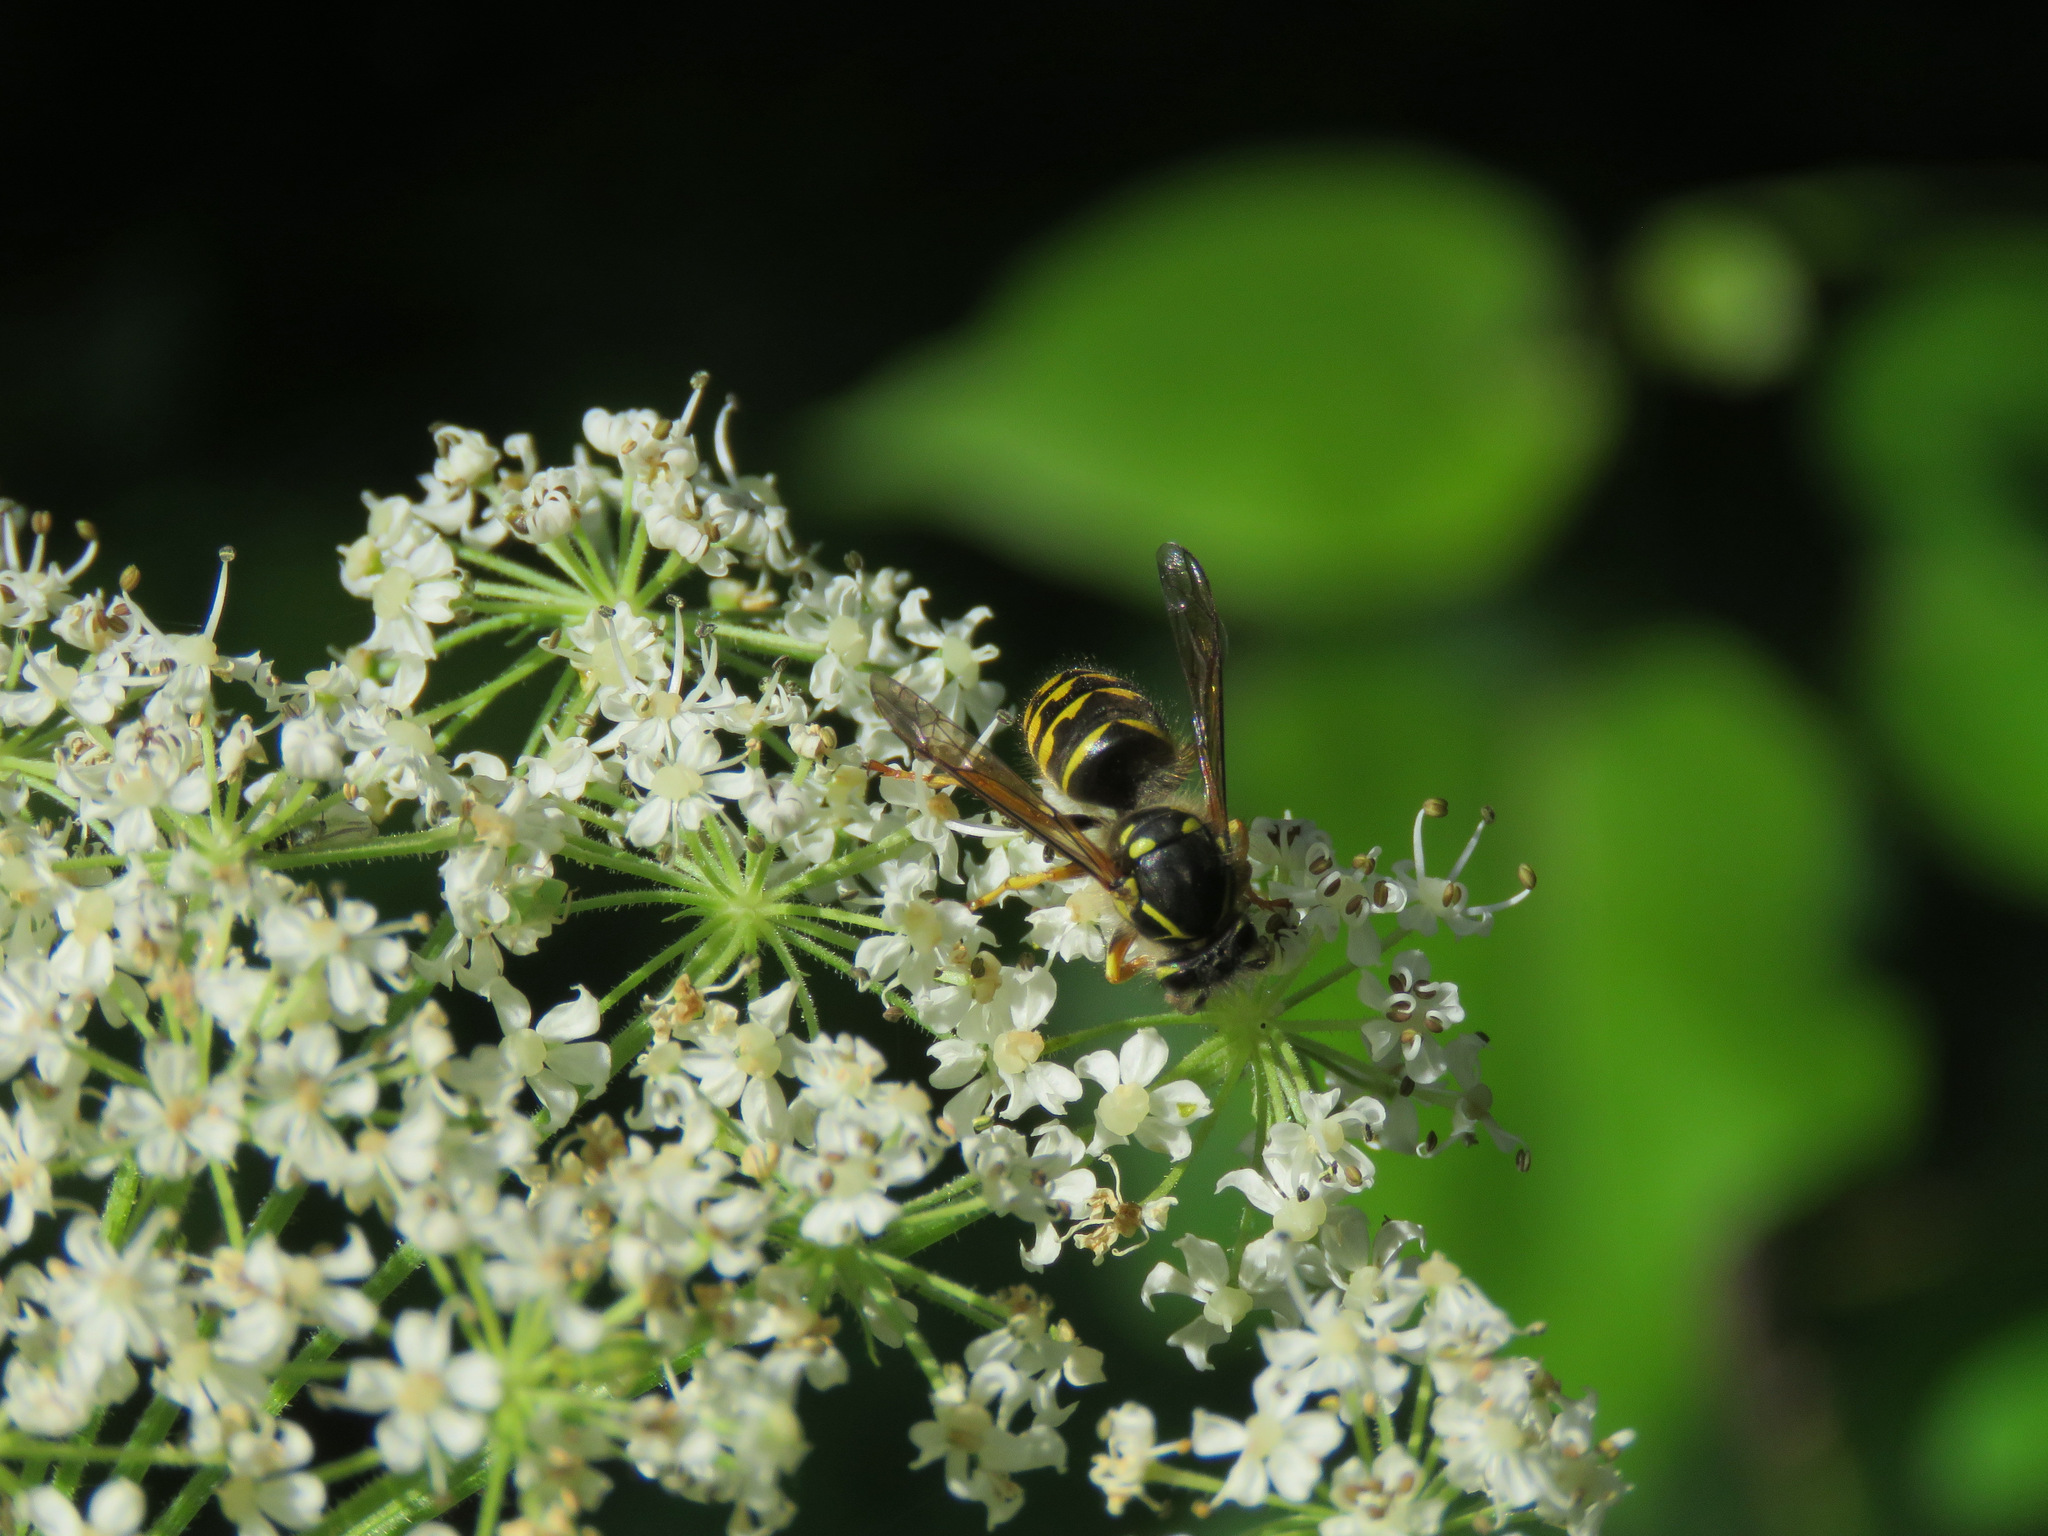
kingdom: Animalia
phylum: Arthropoda
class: Insecta
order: Hymenoptera
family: Vespidae
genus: Dolichovespula
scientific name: Dolichovespula arenaria
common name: Aerial yellowjacket
